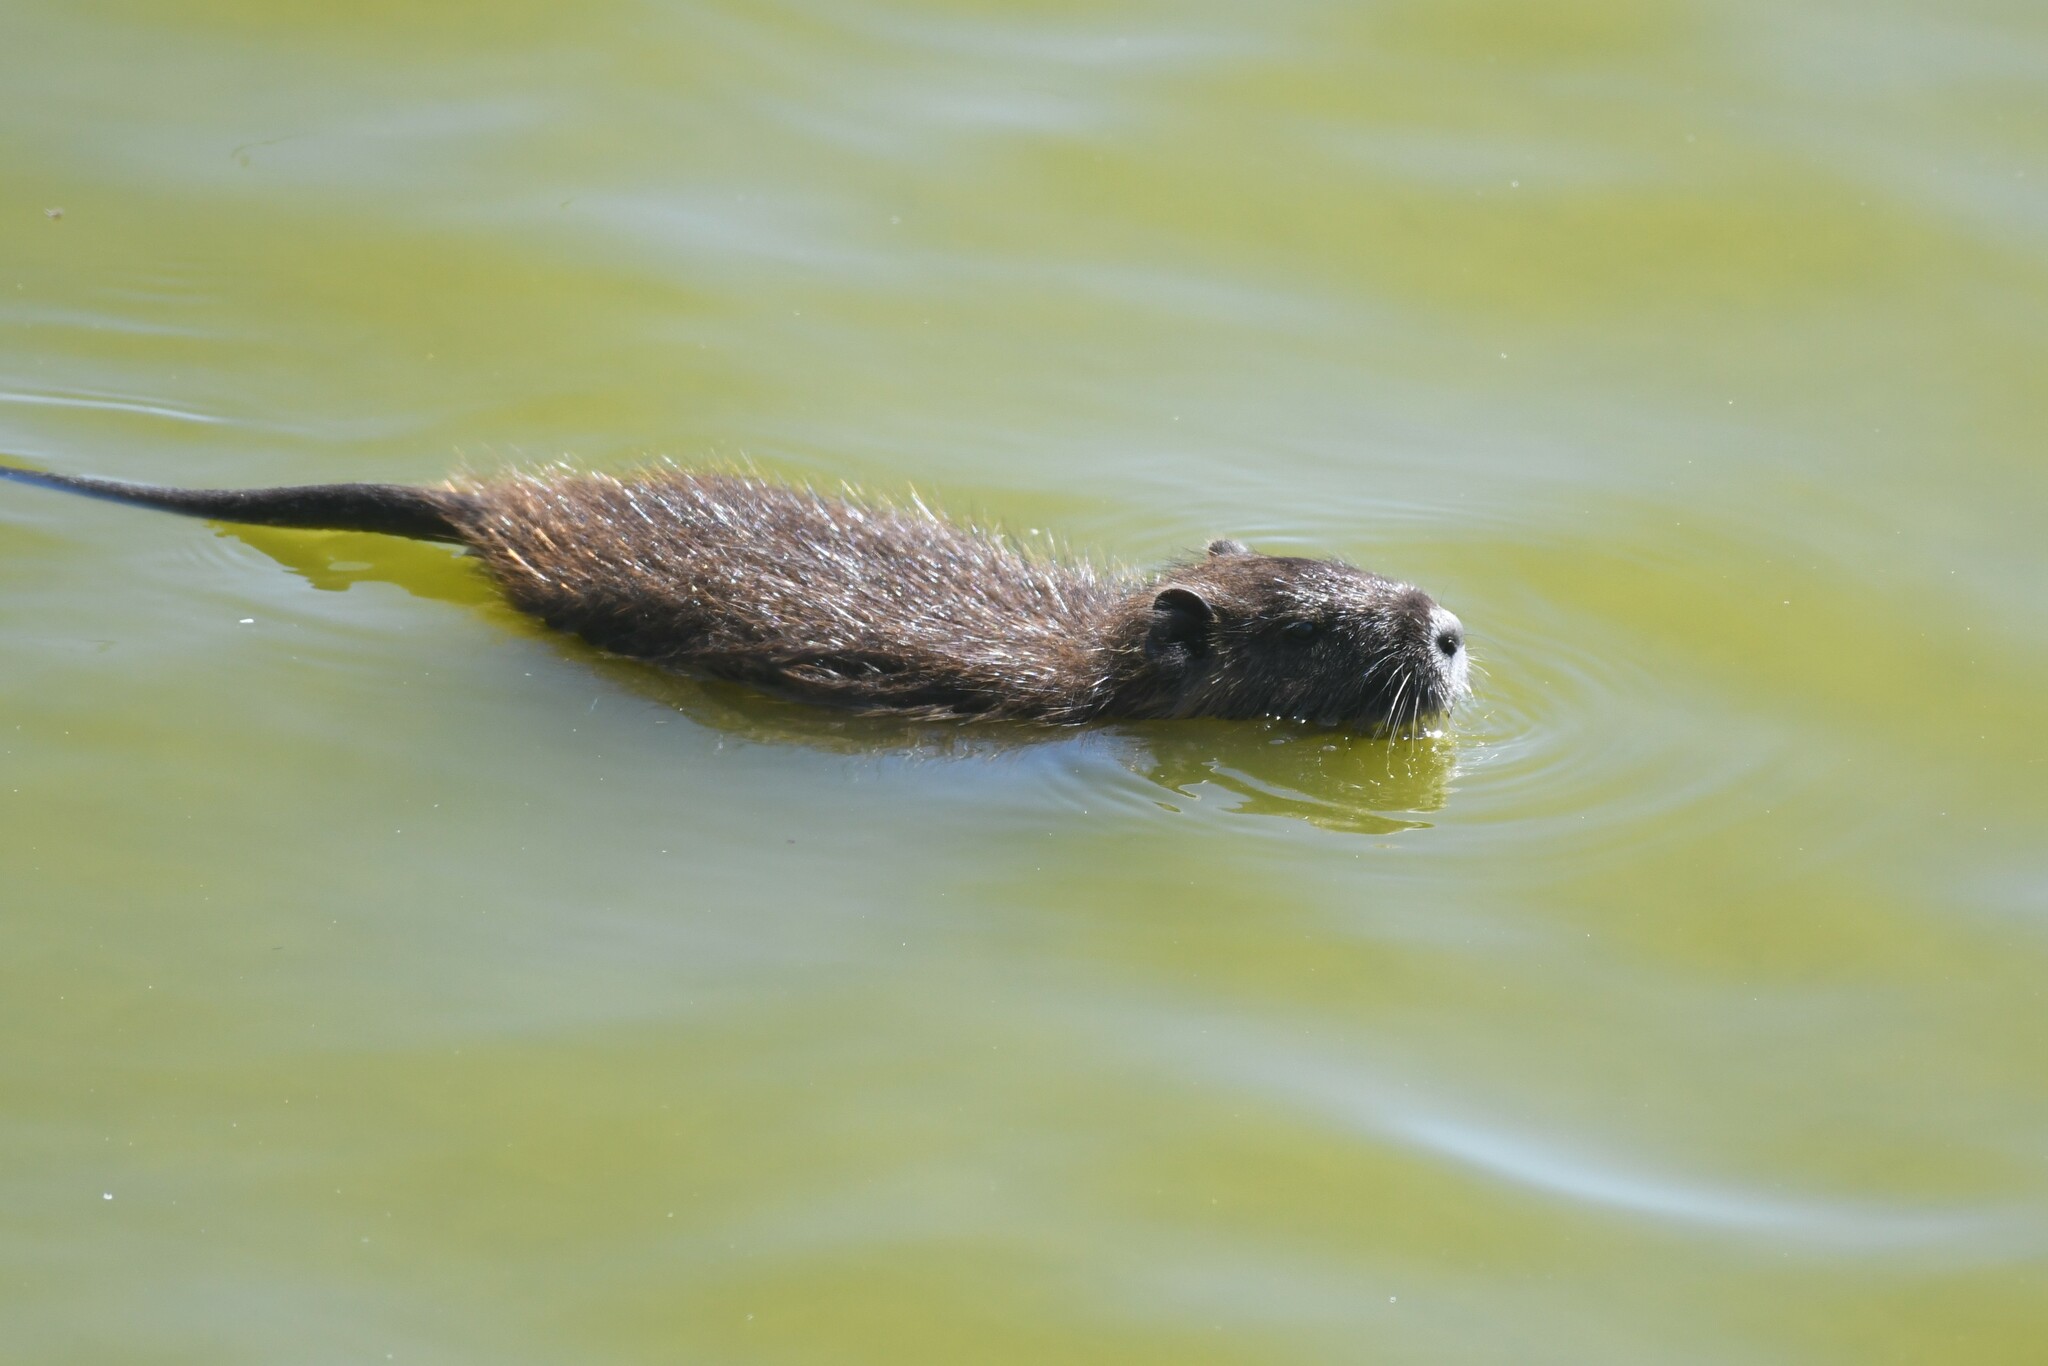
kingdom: Animalia
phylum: Chordata
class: Mammalia
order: Rodentia
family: Myocastoridae
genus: Myocastor
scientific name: Myocastor coypus
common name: Coypu
